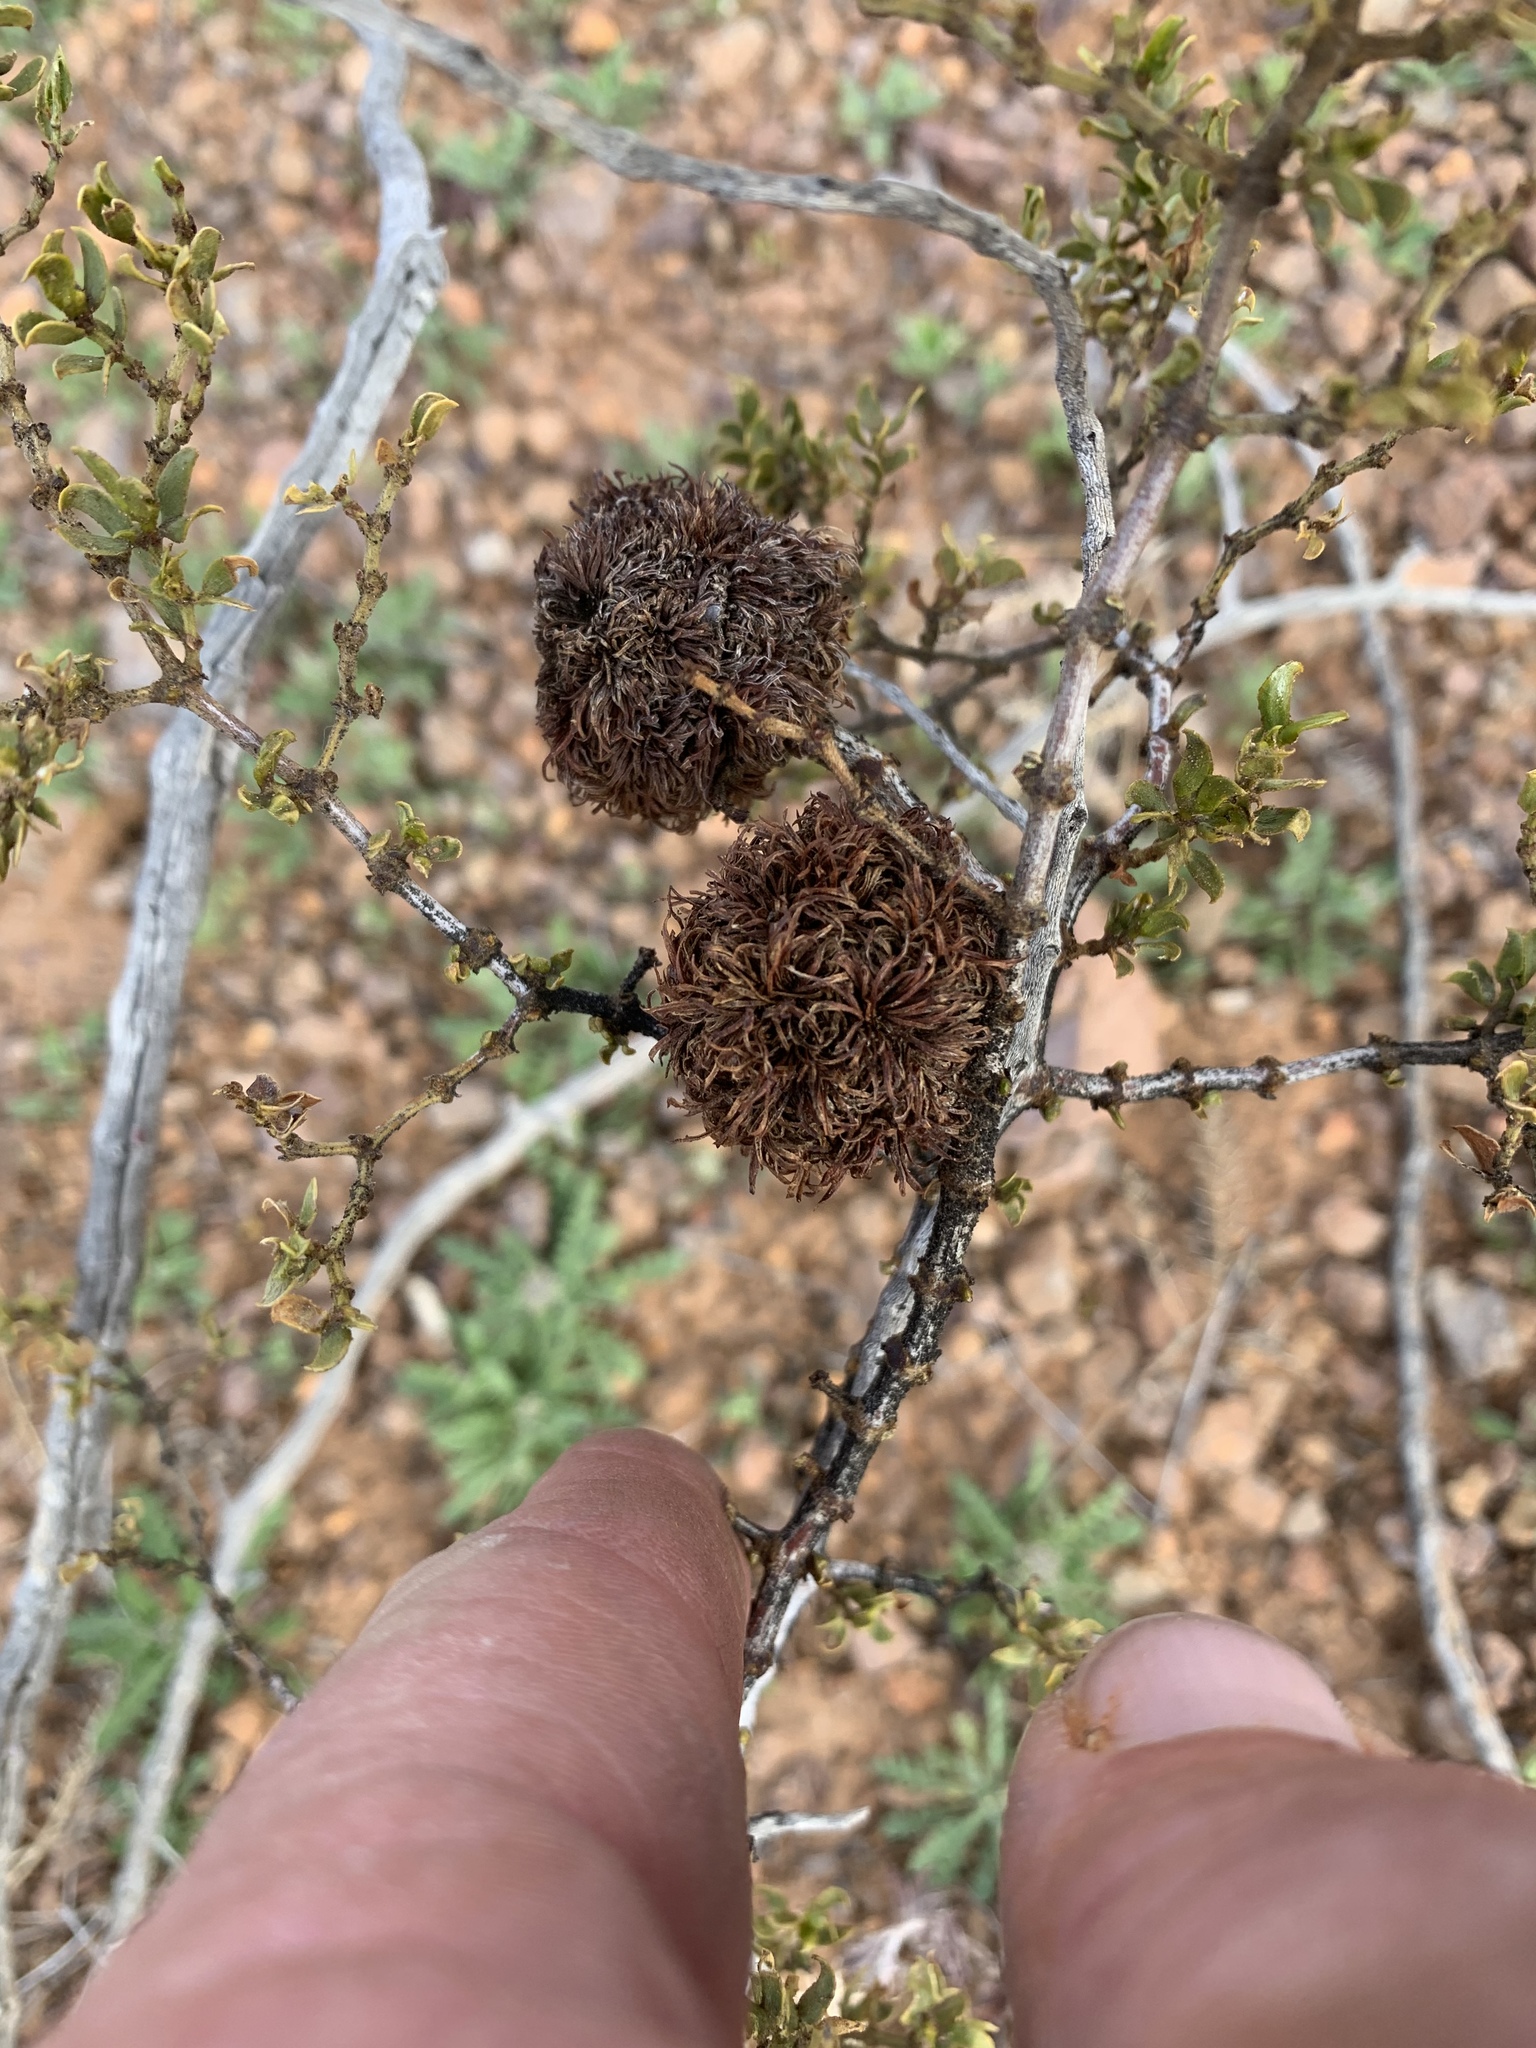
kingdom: Animalia
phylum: Arthropoda
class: Insecta
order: Diptera
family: Cecidomyiidae
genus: Asphondylia
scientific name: Asphondylia auripila
